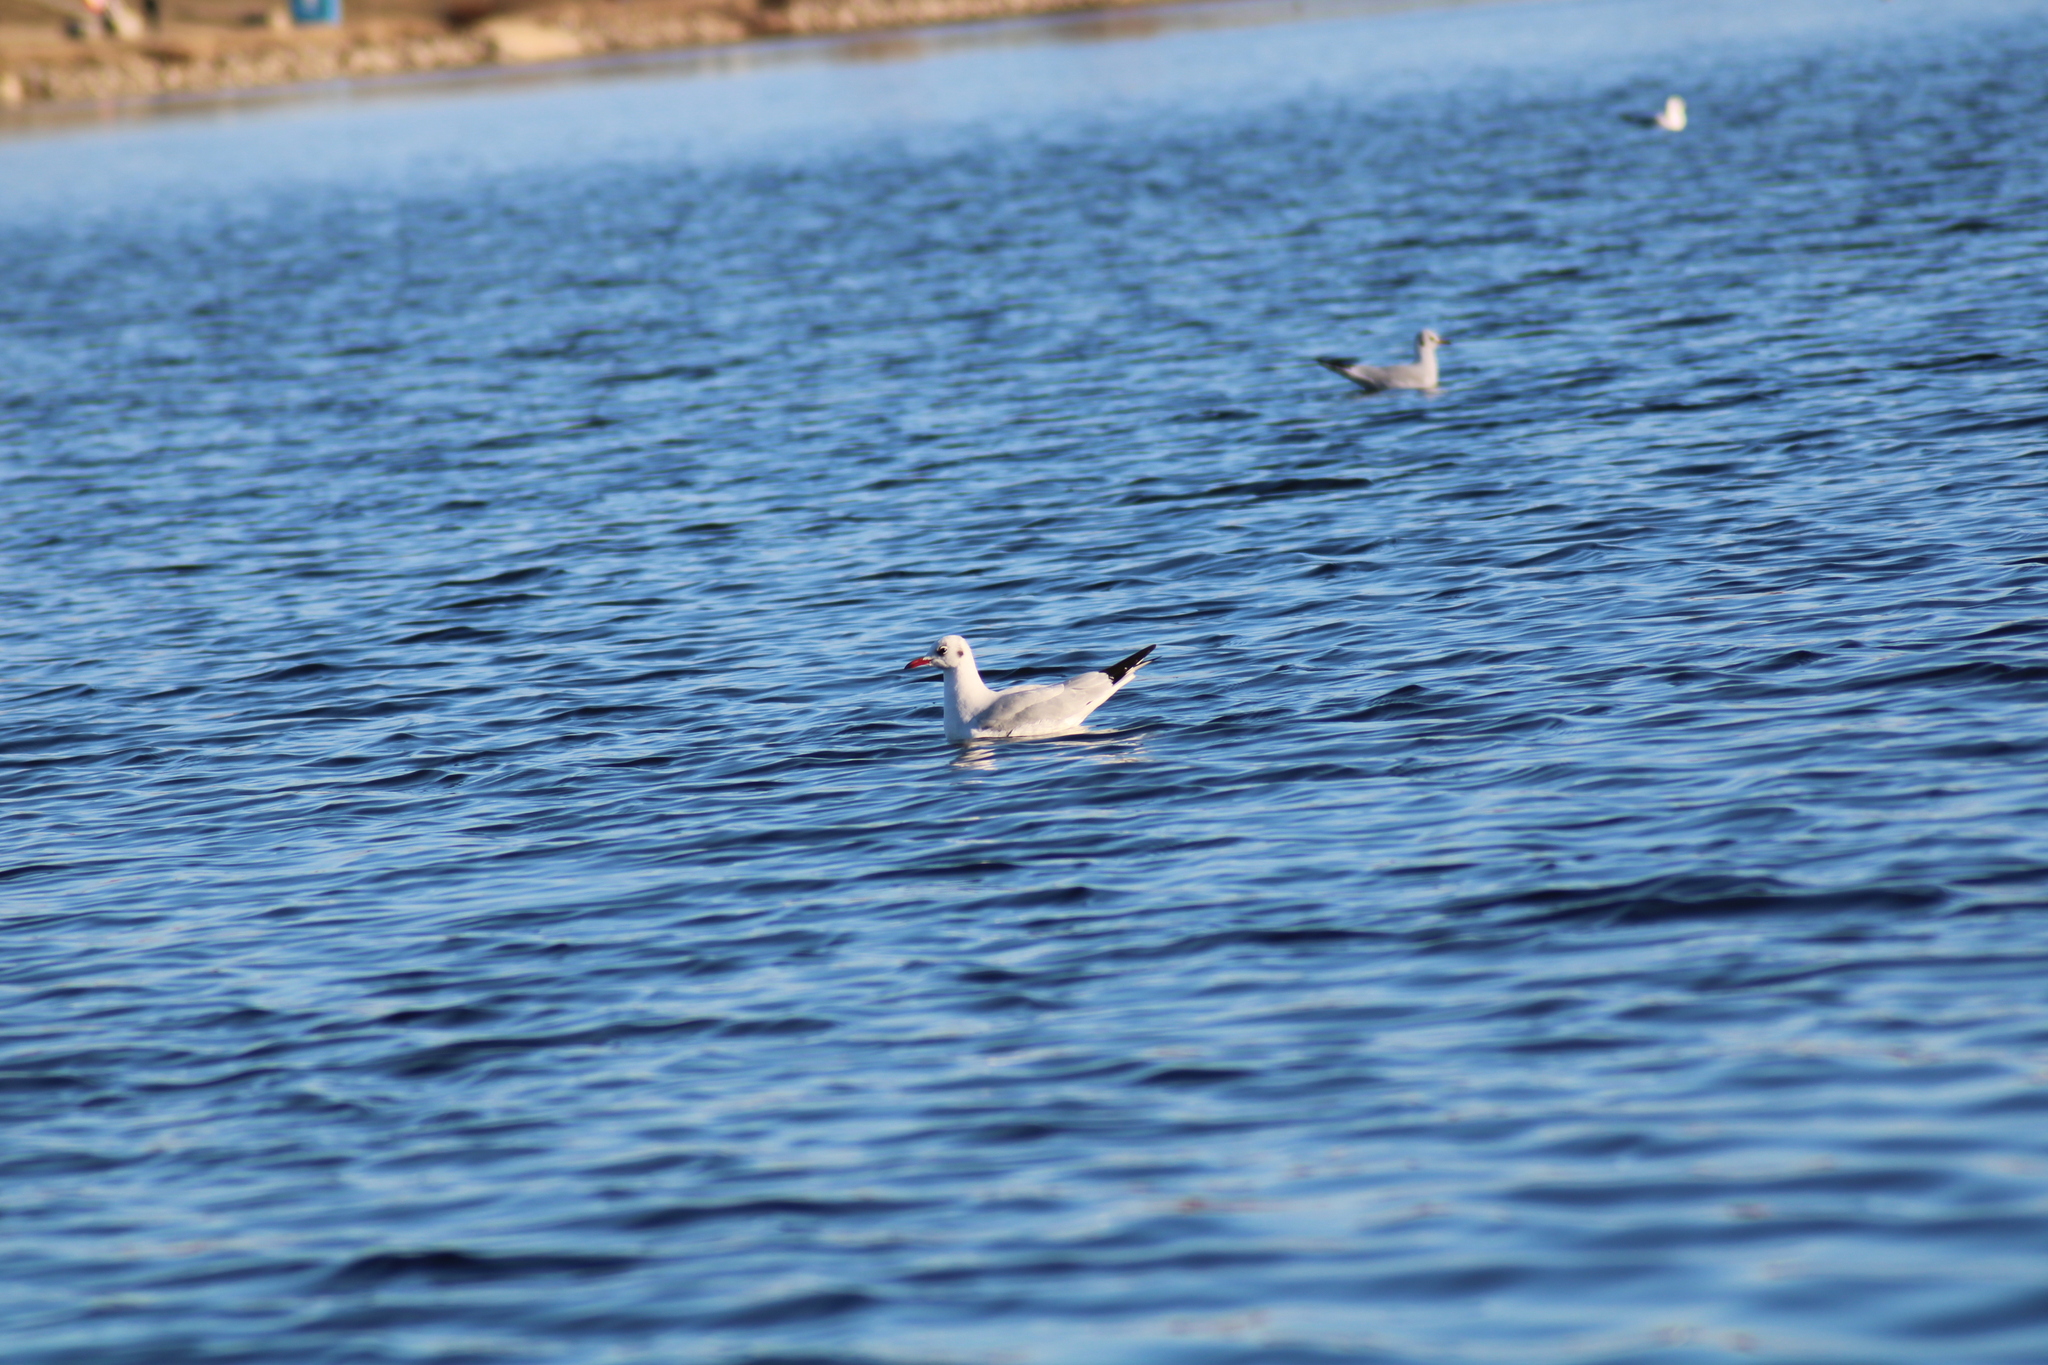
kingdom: Animalia
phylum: Chordata
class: Aves
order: Charadriiformes
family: Laridae
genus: Chroicocephalus
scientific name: Chroicocephalus ridibundus
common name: Black-headed gull
